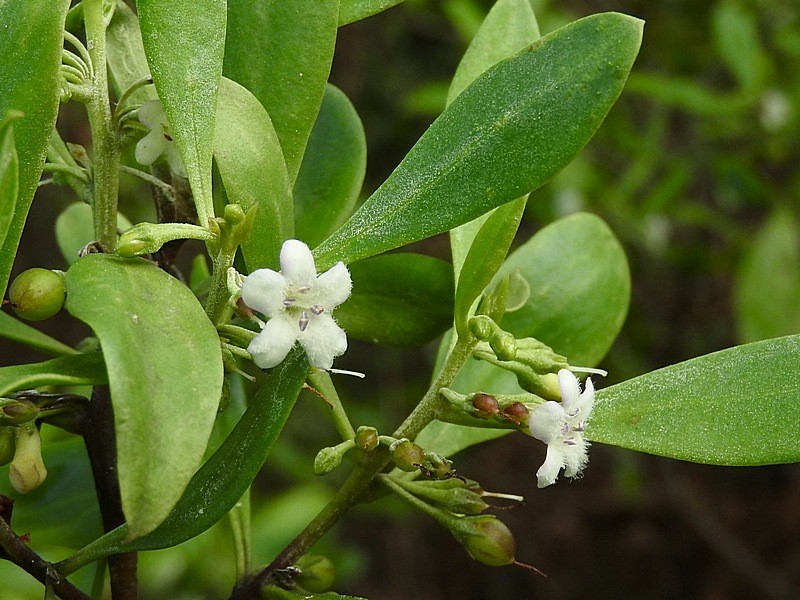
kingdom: Plantae
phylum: Tracheophyta
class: Magnoliopsida
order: Lamiales
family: Scrophulariaceae
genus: Myoporum
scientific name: Myoporum boninense
